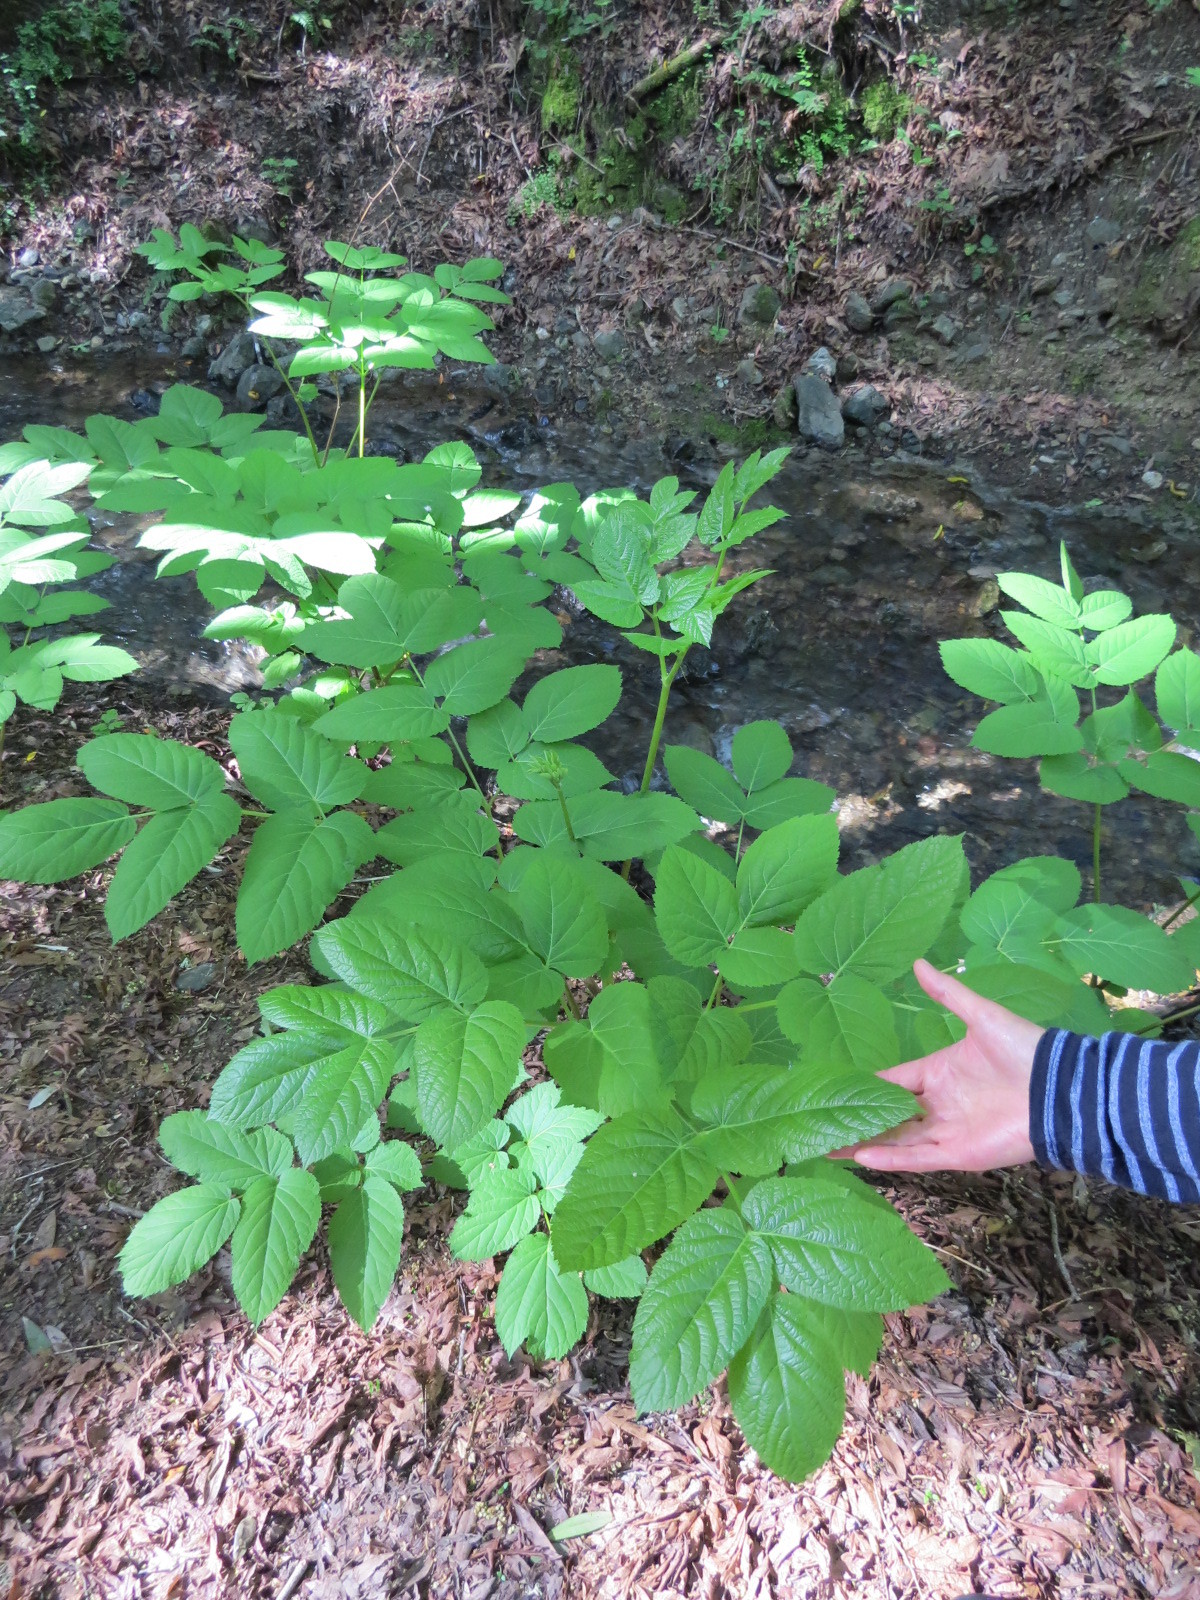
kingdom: Plantae
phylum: Tracheophyta
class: Magnoliopsida
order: Apiales
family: Araliaceae
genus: Aralia
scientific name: Aralia californica
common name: California-ginseng
